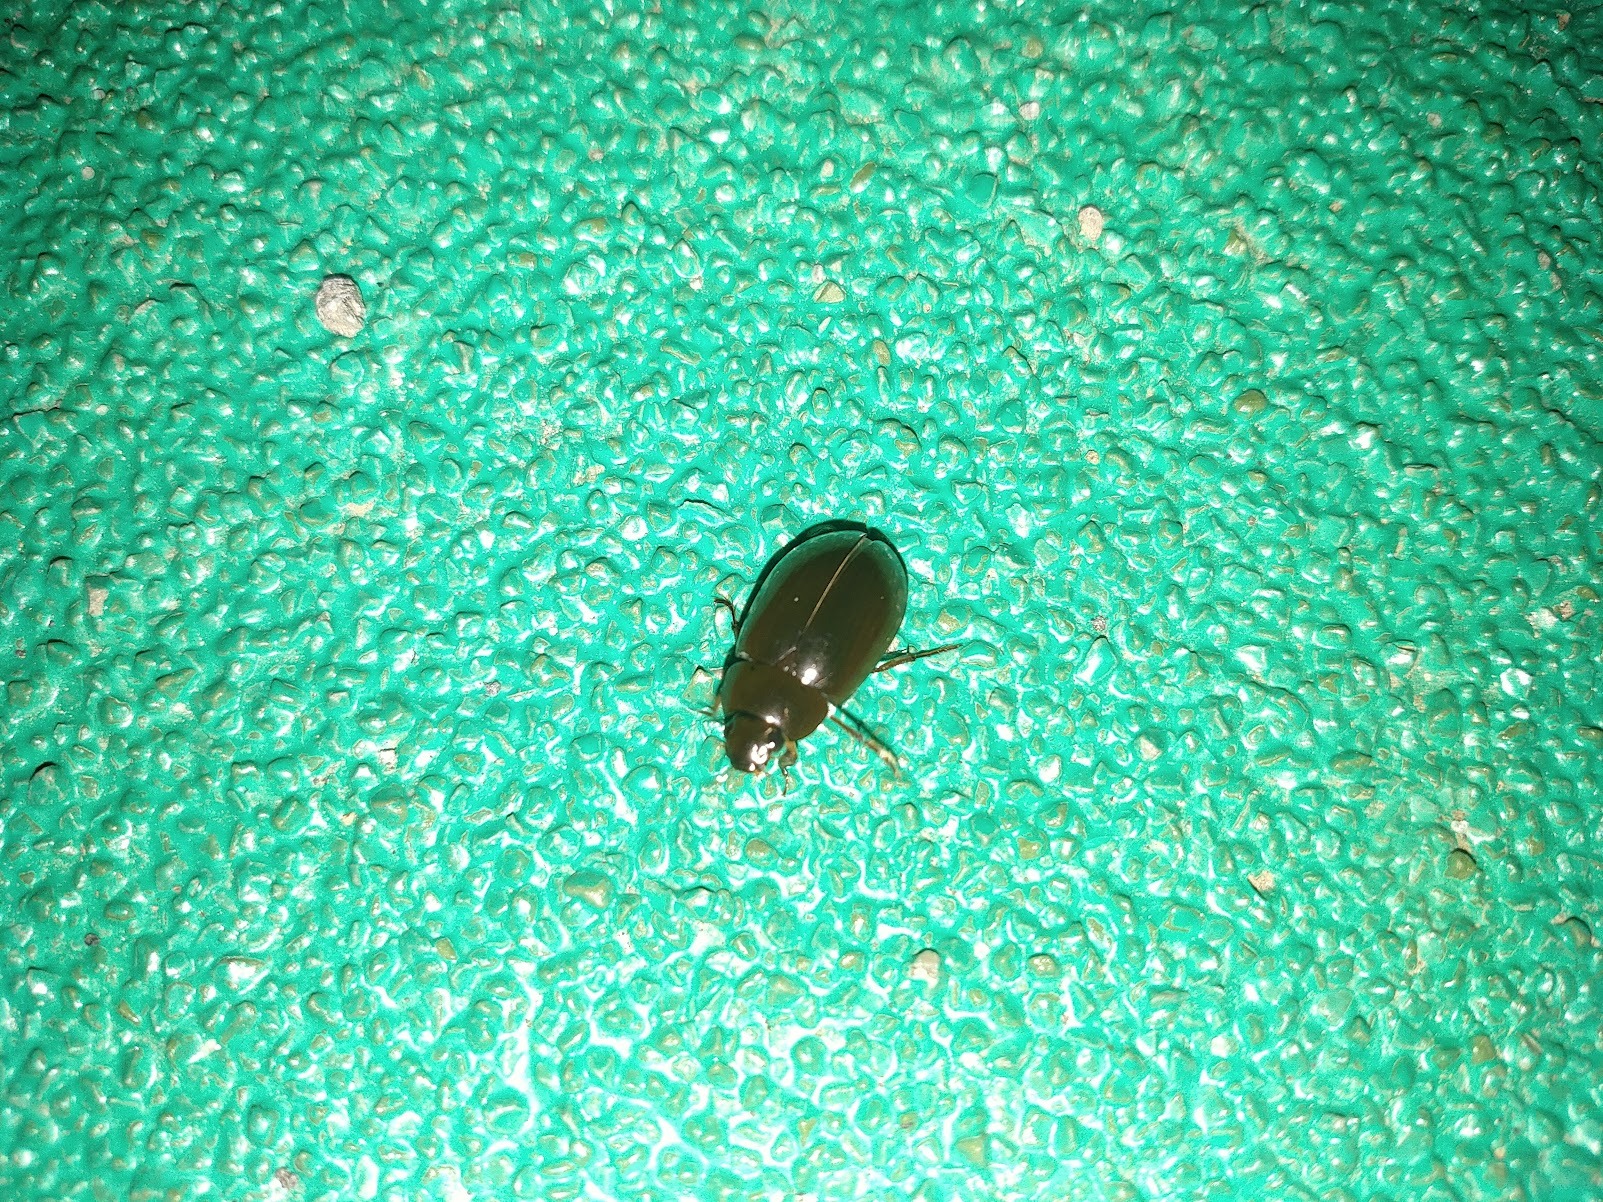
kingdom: Animalia
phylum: Arthropoda
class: Insecta
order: Coleoptera
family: Hydrophilidae
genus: Hydrochara
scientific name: Hydrochara affinis
